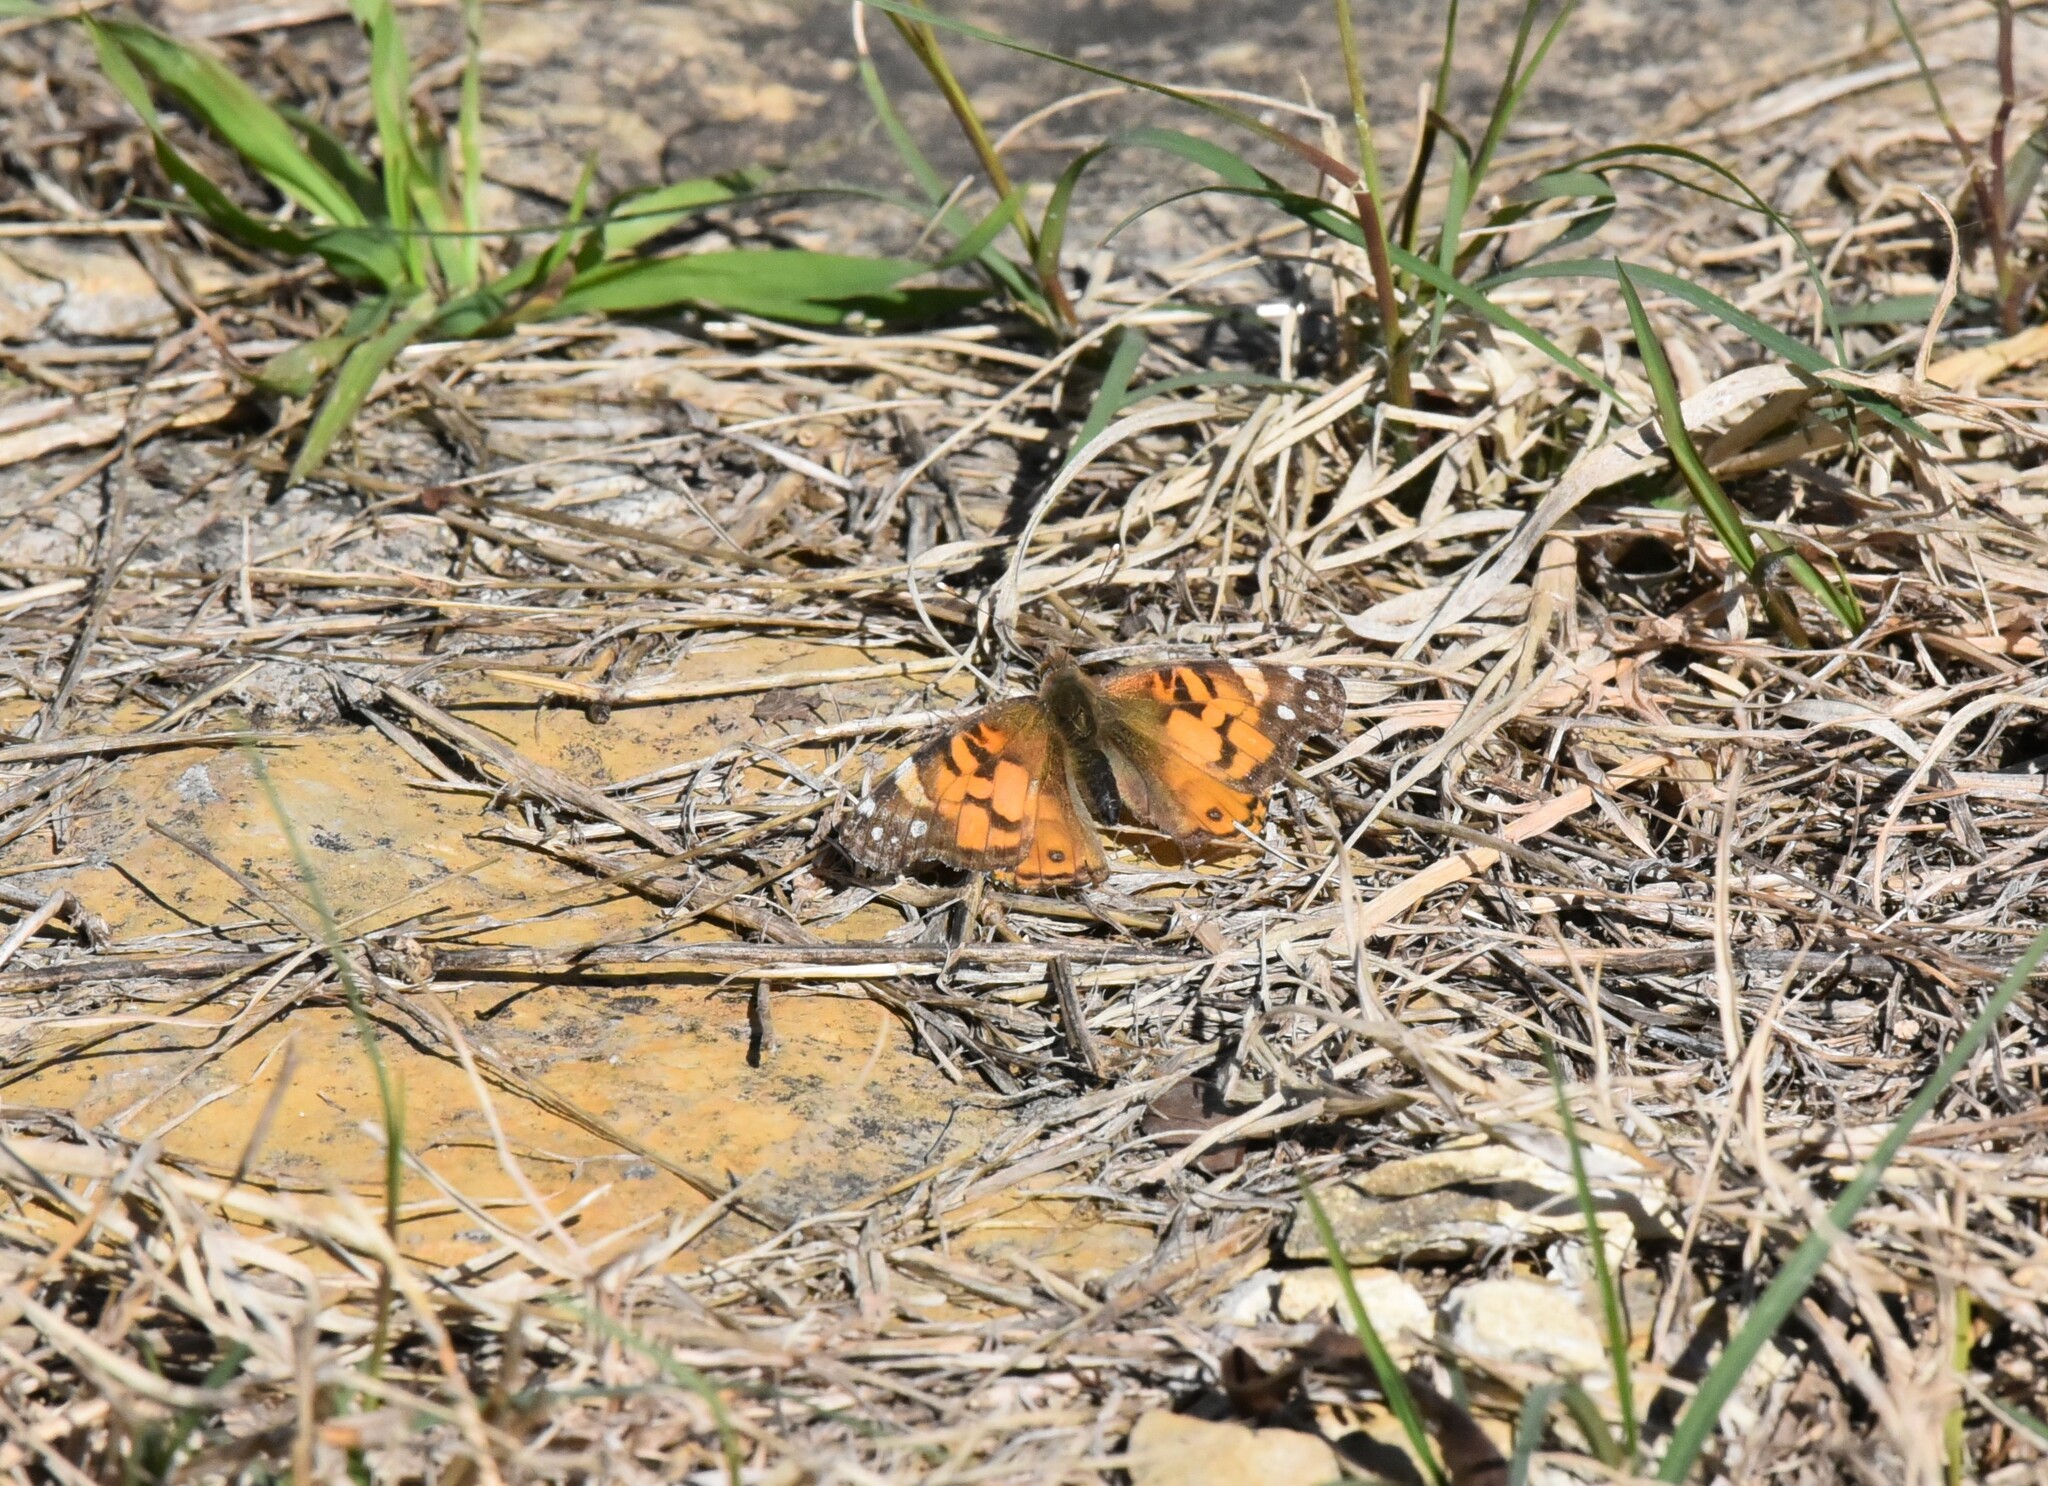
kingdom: Animalia
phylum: Arthropoda
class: Insecta
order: Lepidoptera
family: Nymphalidae
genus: Vanessa
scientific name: Vanessa virginiensis
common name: American lady
